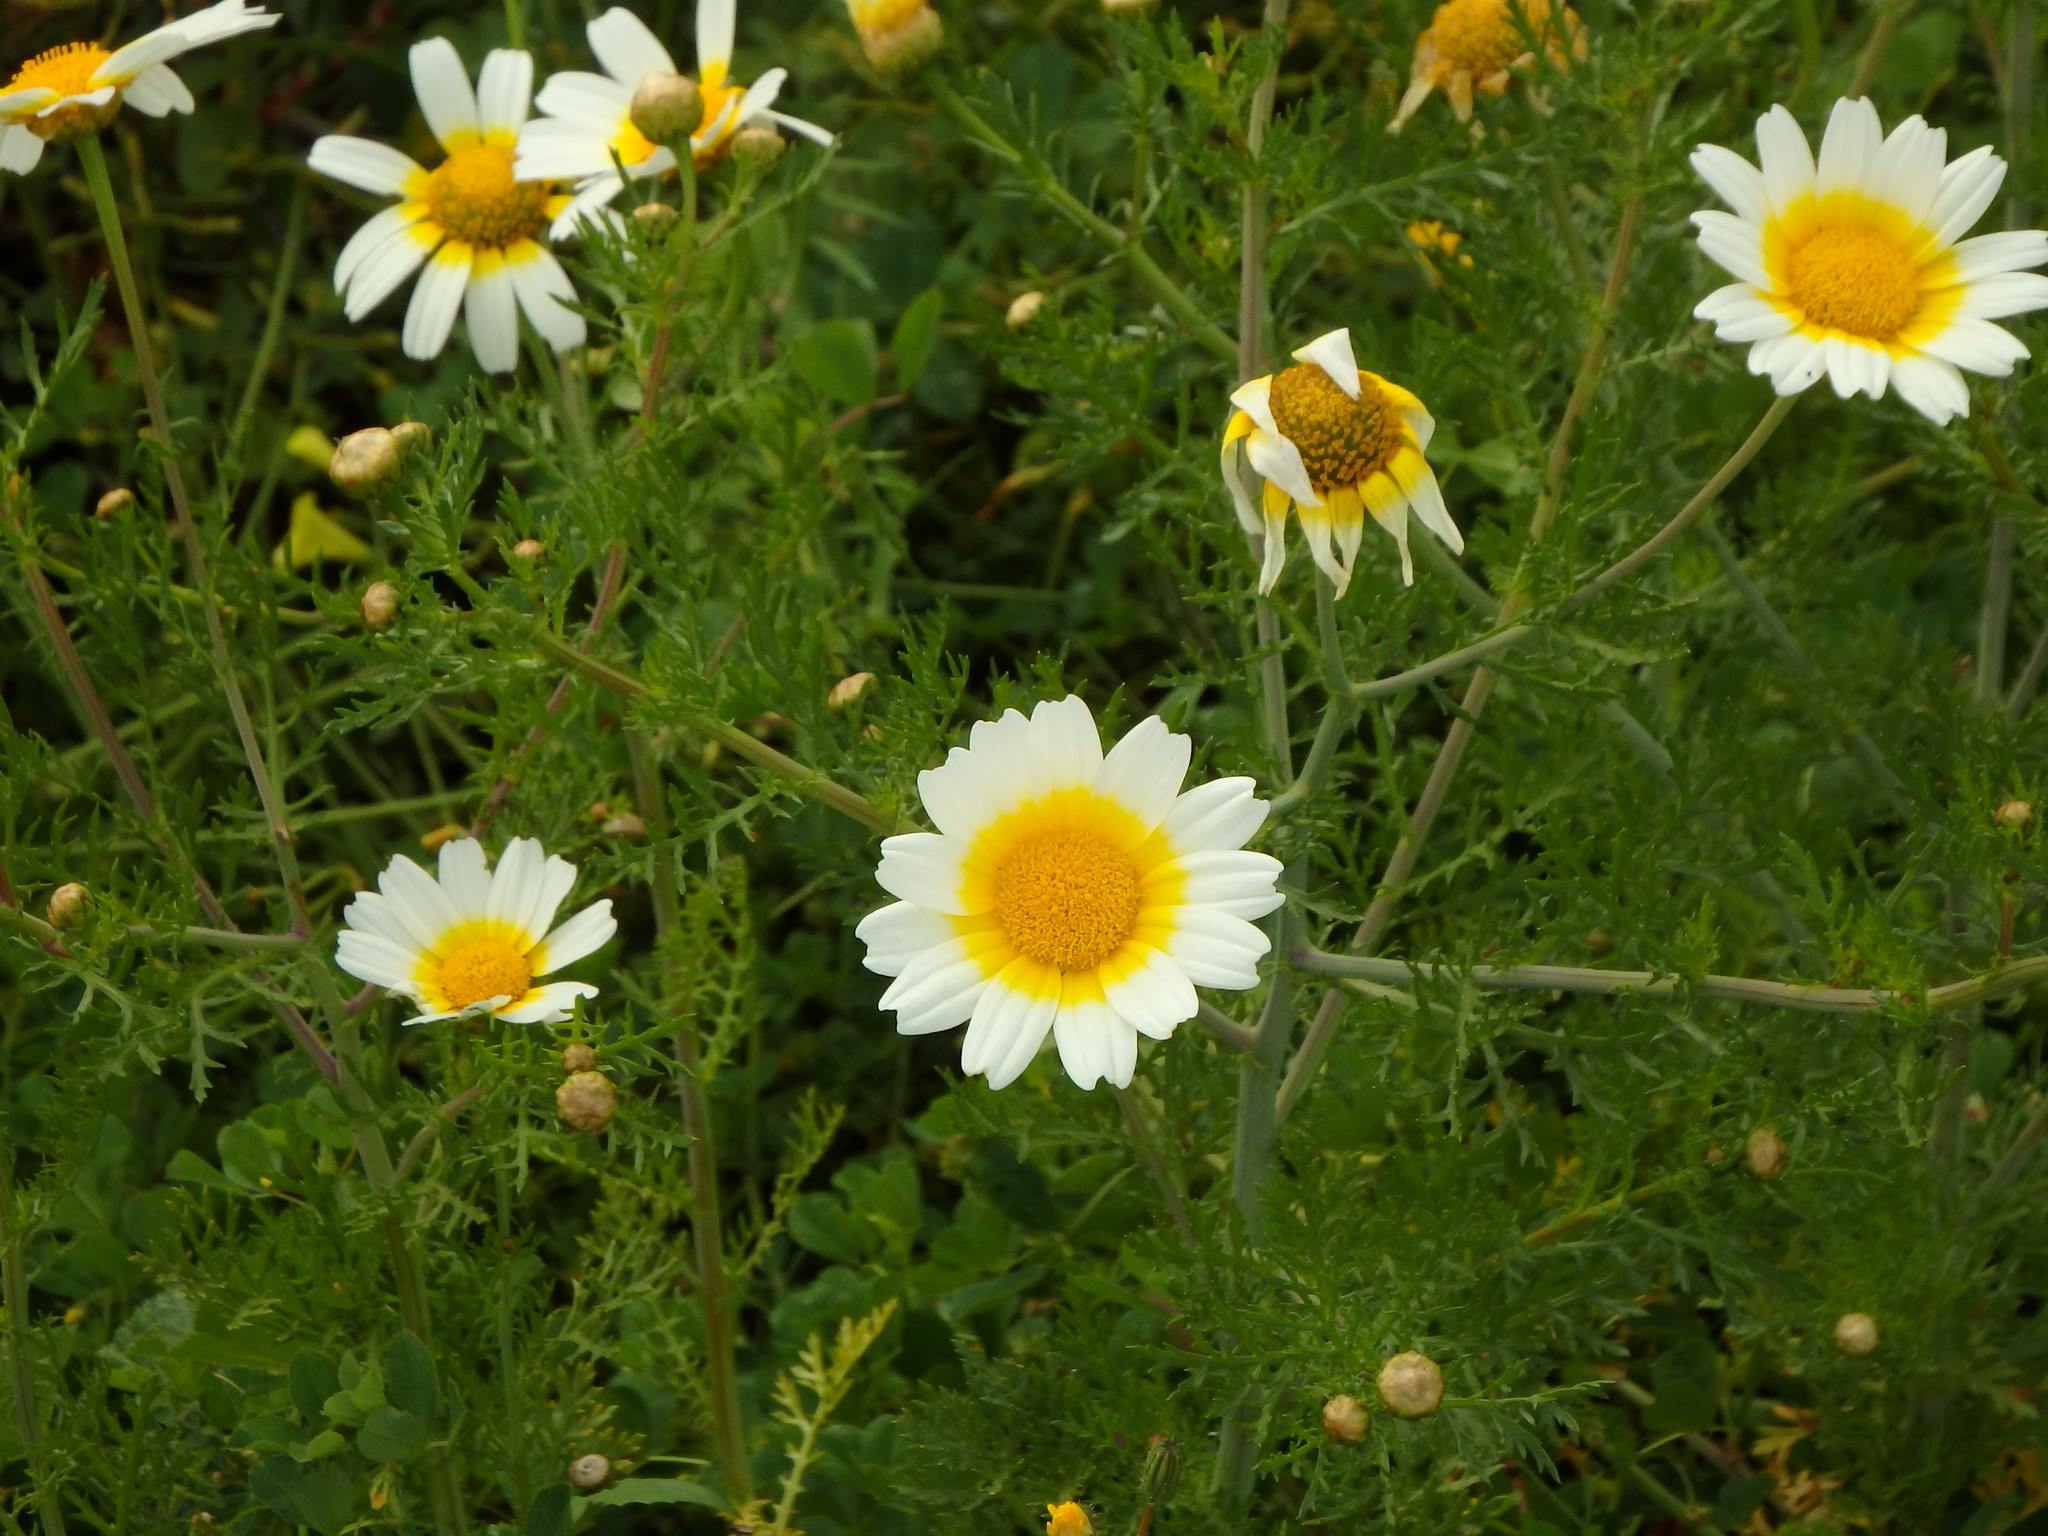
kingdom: Plantae
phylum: Tracheophyta
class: Magnoliopsida
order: Asterales
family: Asteraceae
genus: Glebionis
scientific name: Glebionis coronaria
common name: Crowndaisy
